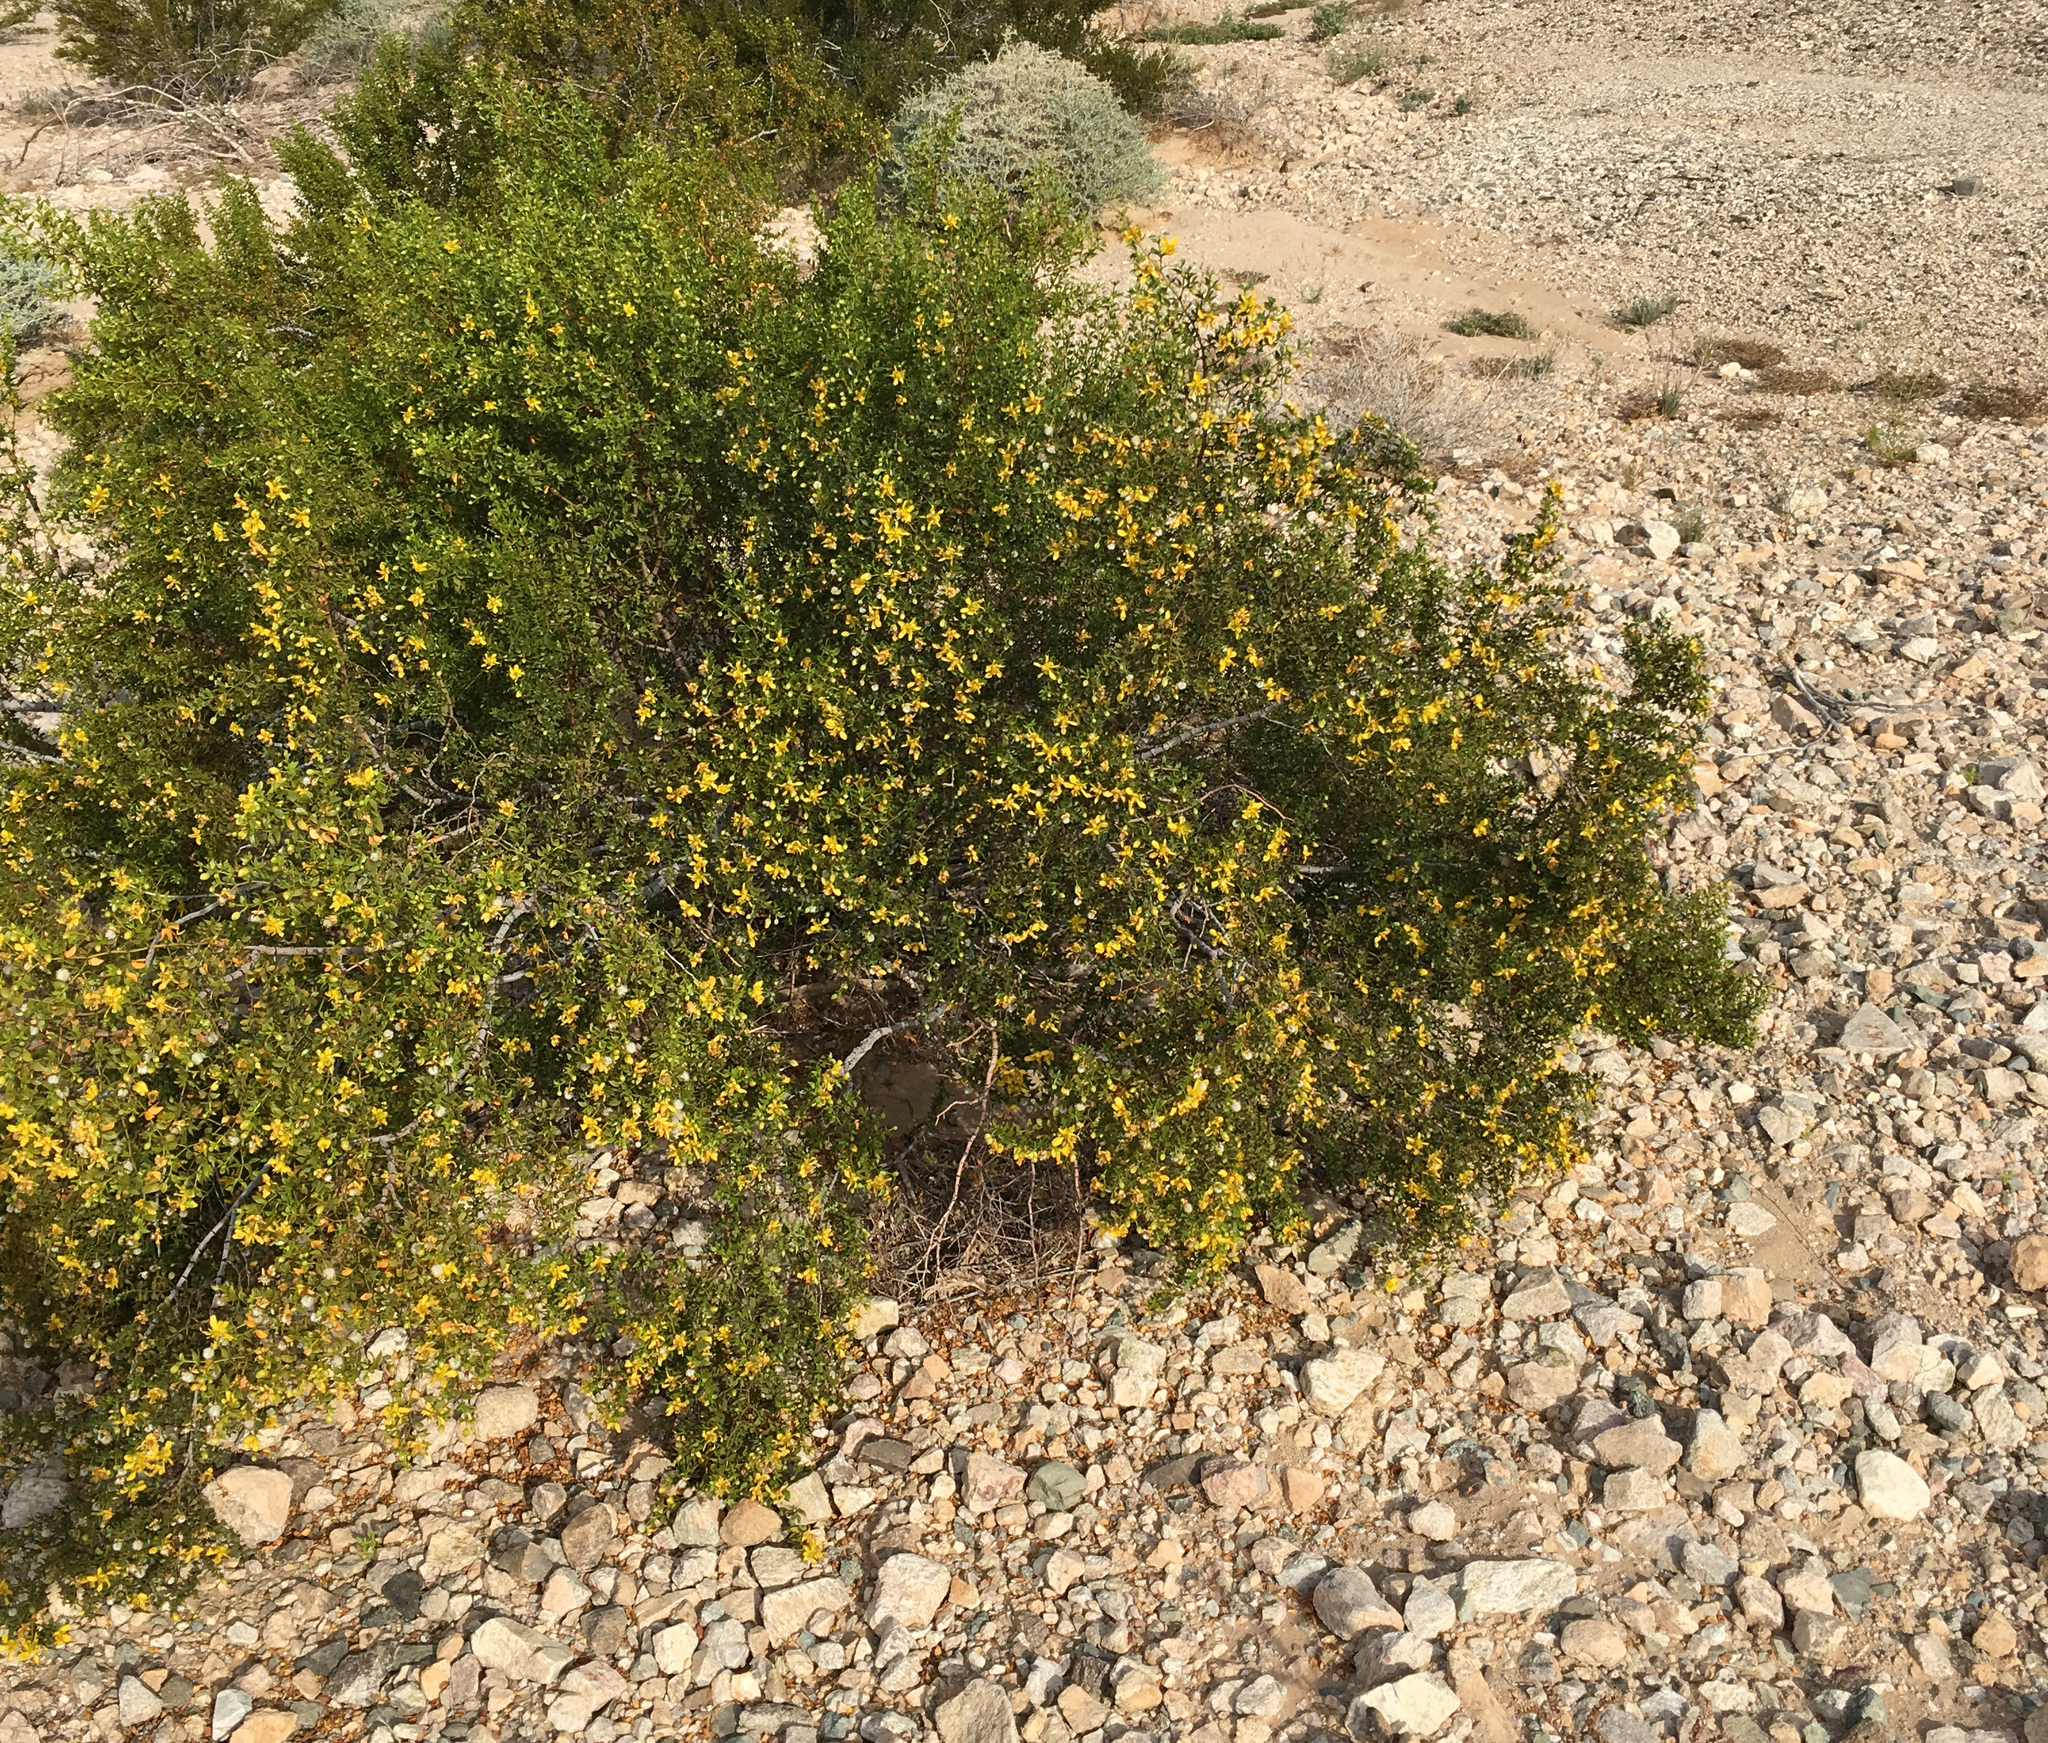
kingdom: Plantae
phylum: Tracheophyta
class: Magnoliopsida
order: Zygophyllales
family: Zygophyllaceae
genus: Larrea
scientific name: Larrea tridentata
